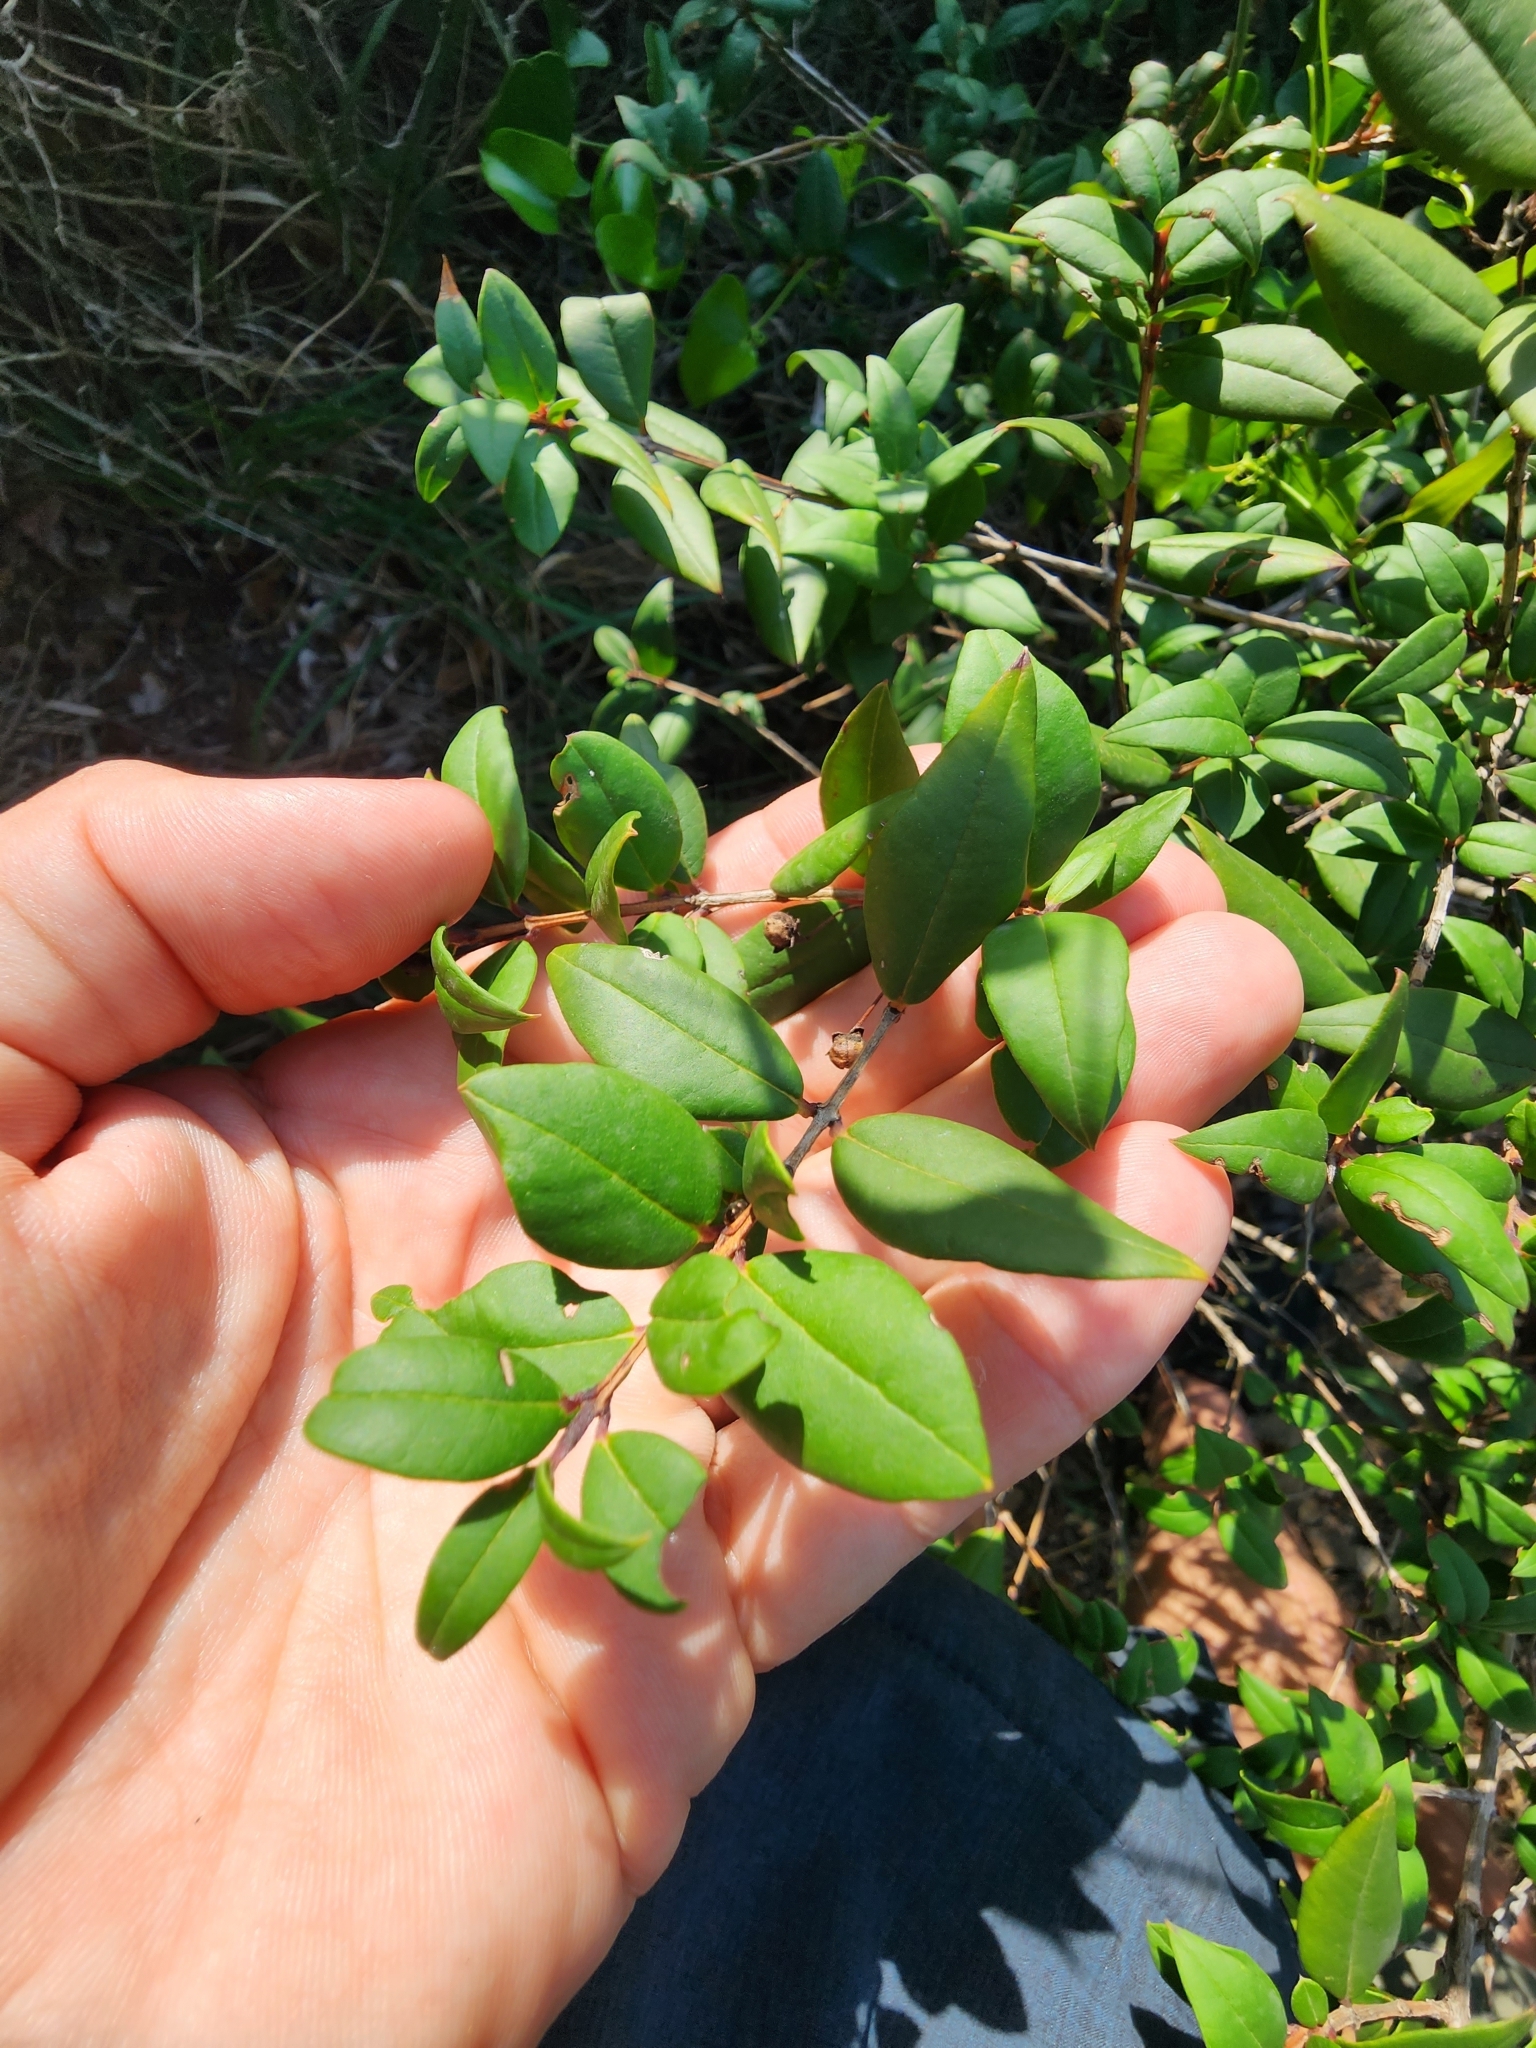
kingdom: Plantae
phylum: Tracheophyta
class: Magnoliopsida
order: Myrtales
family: Myrtaceae
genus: Myrtus
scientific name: Myrtus communis
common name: Myrtle
